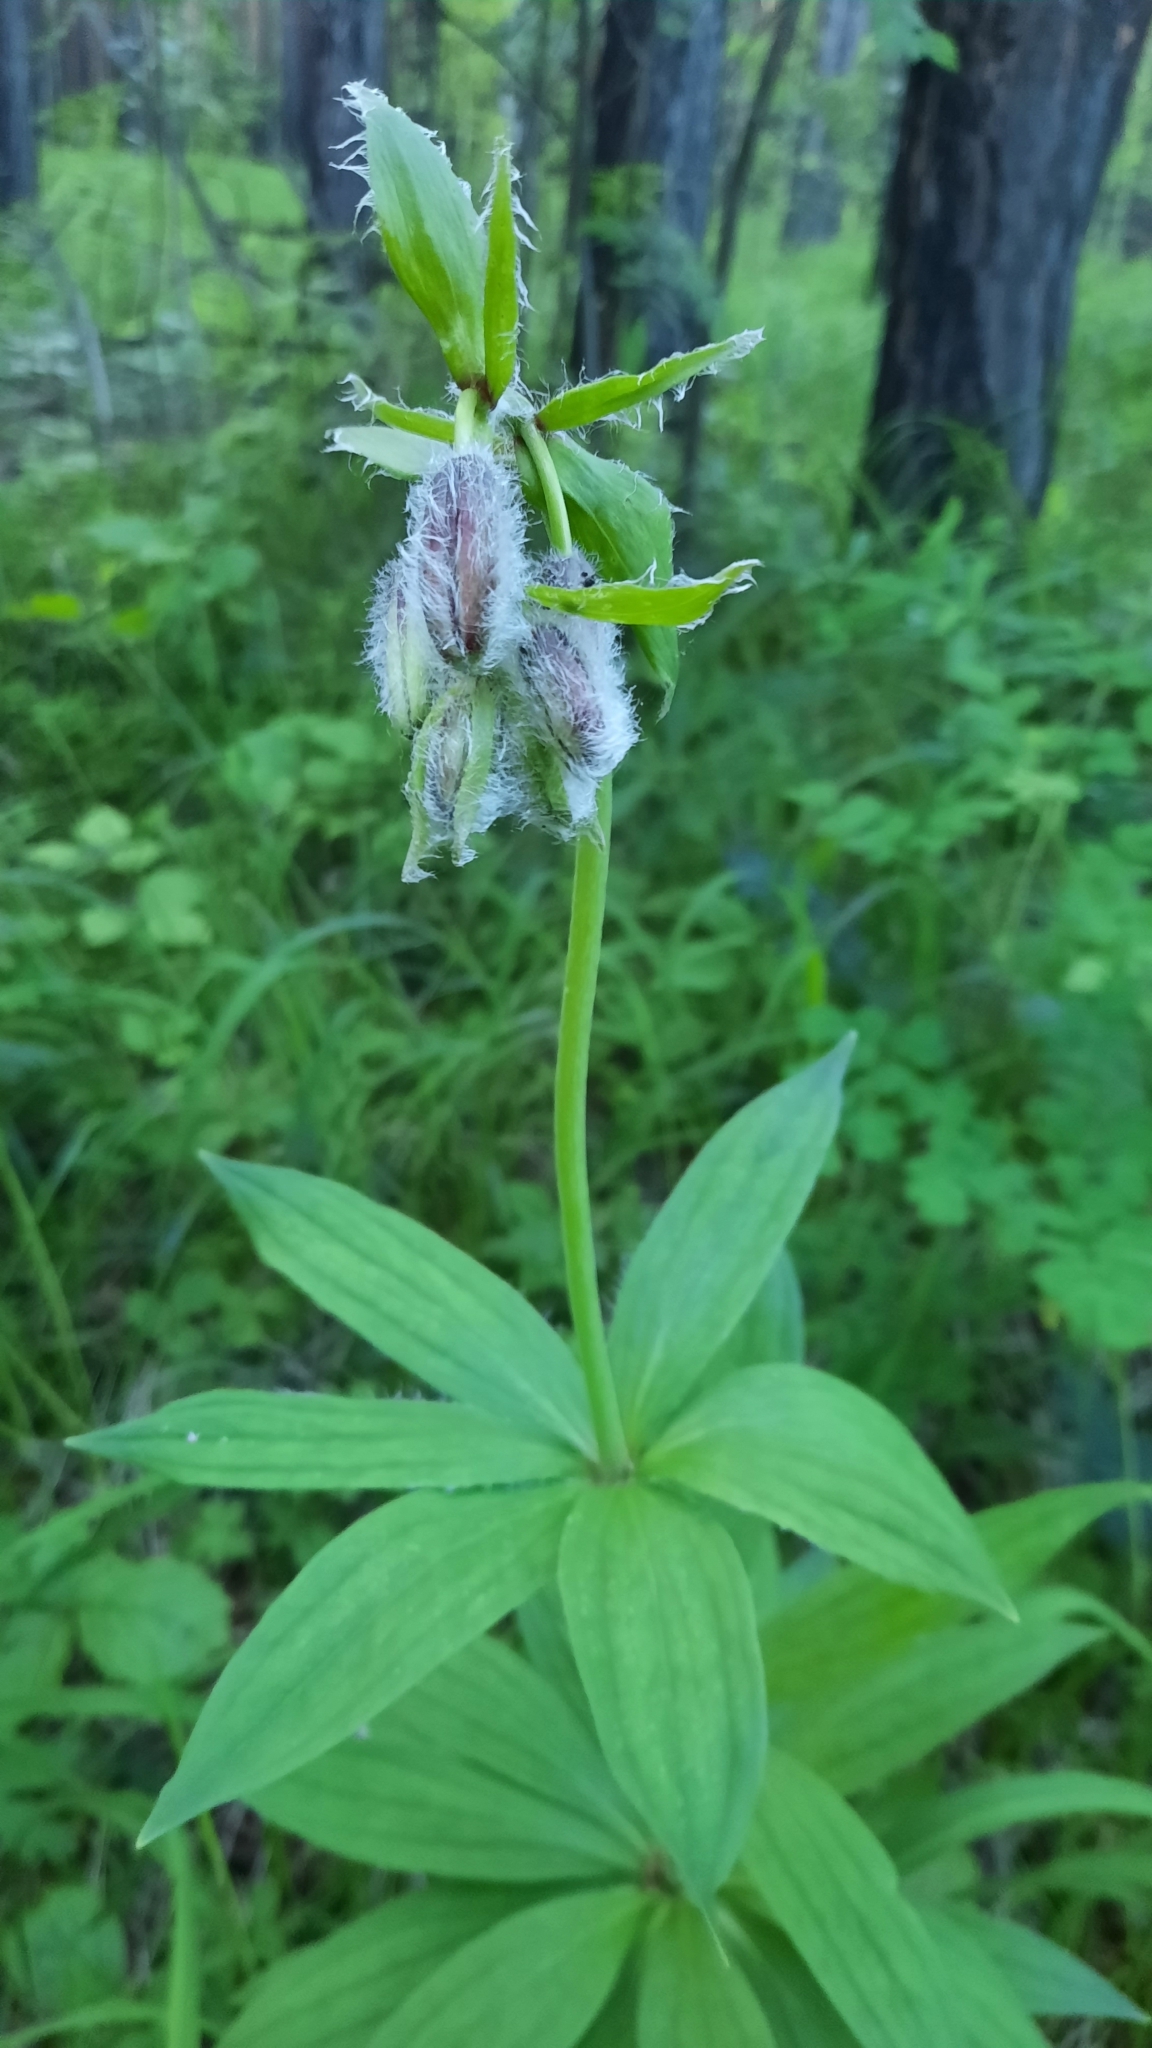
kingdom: Plantae
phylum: Tracheophyta
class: Liliopsida
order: Liliales
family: Liliaceae
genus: Lilium
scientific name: Lilium martagon
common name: Martagon lily
